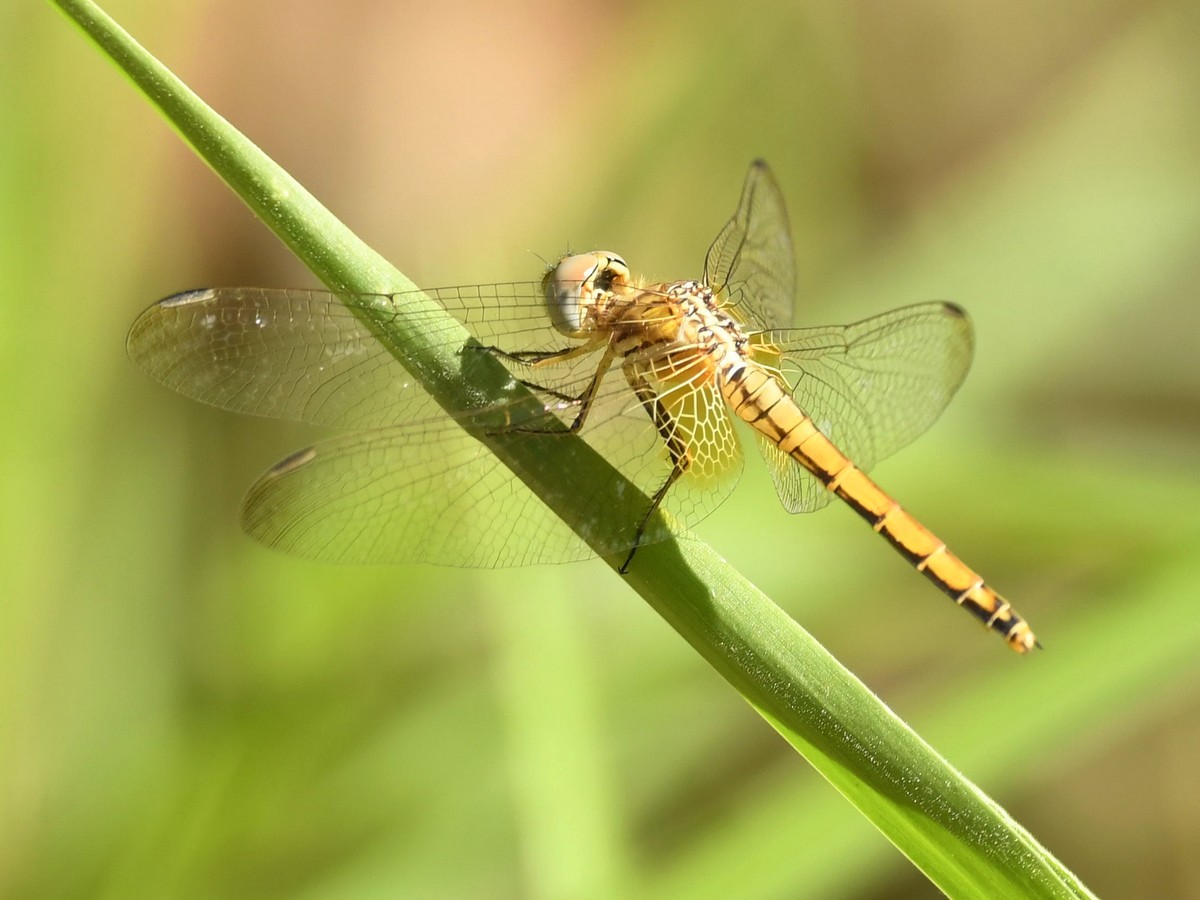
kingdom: Animalia
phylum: Arthropoda
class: Insecta
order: Odonata
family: Libellulidae
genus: Trithemis
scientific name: Trithemis aurora
